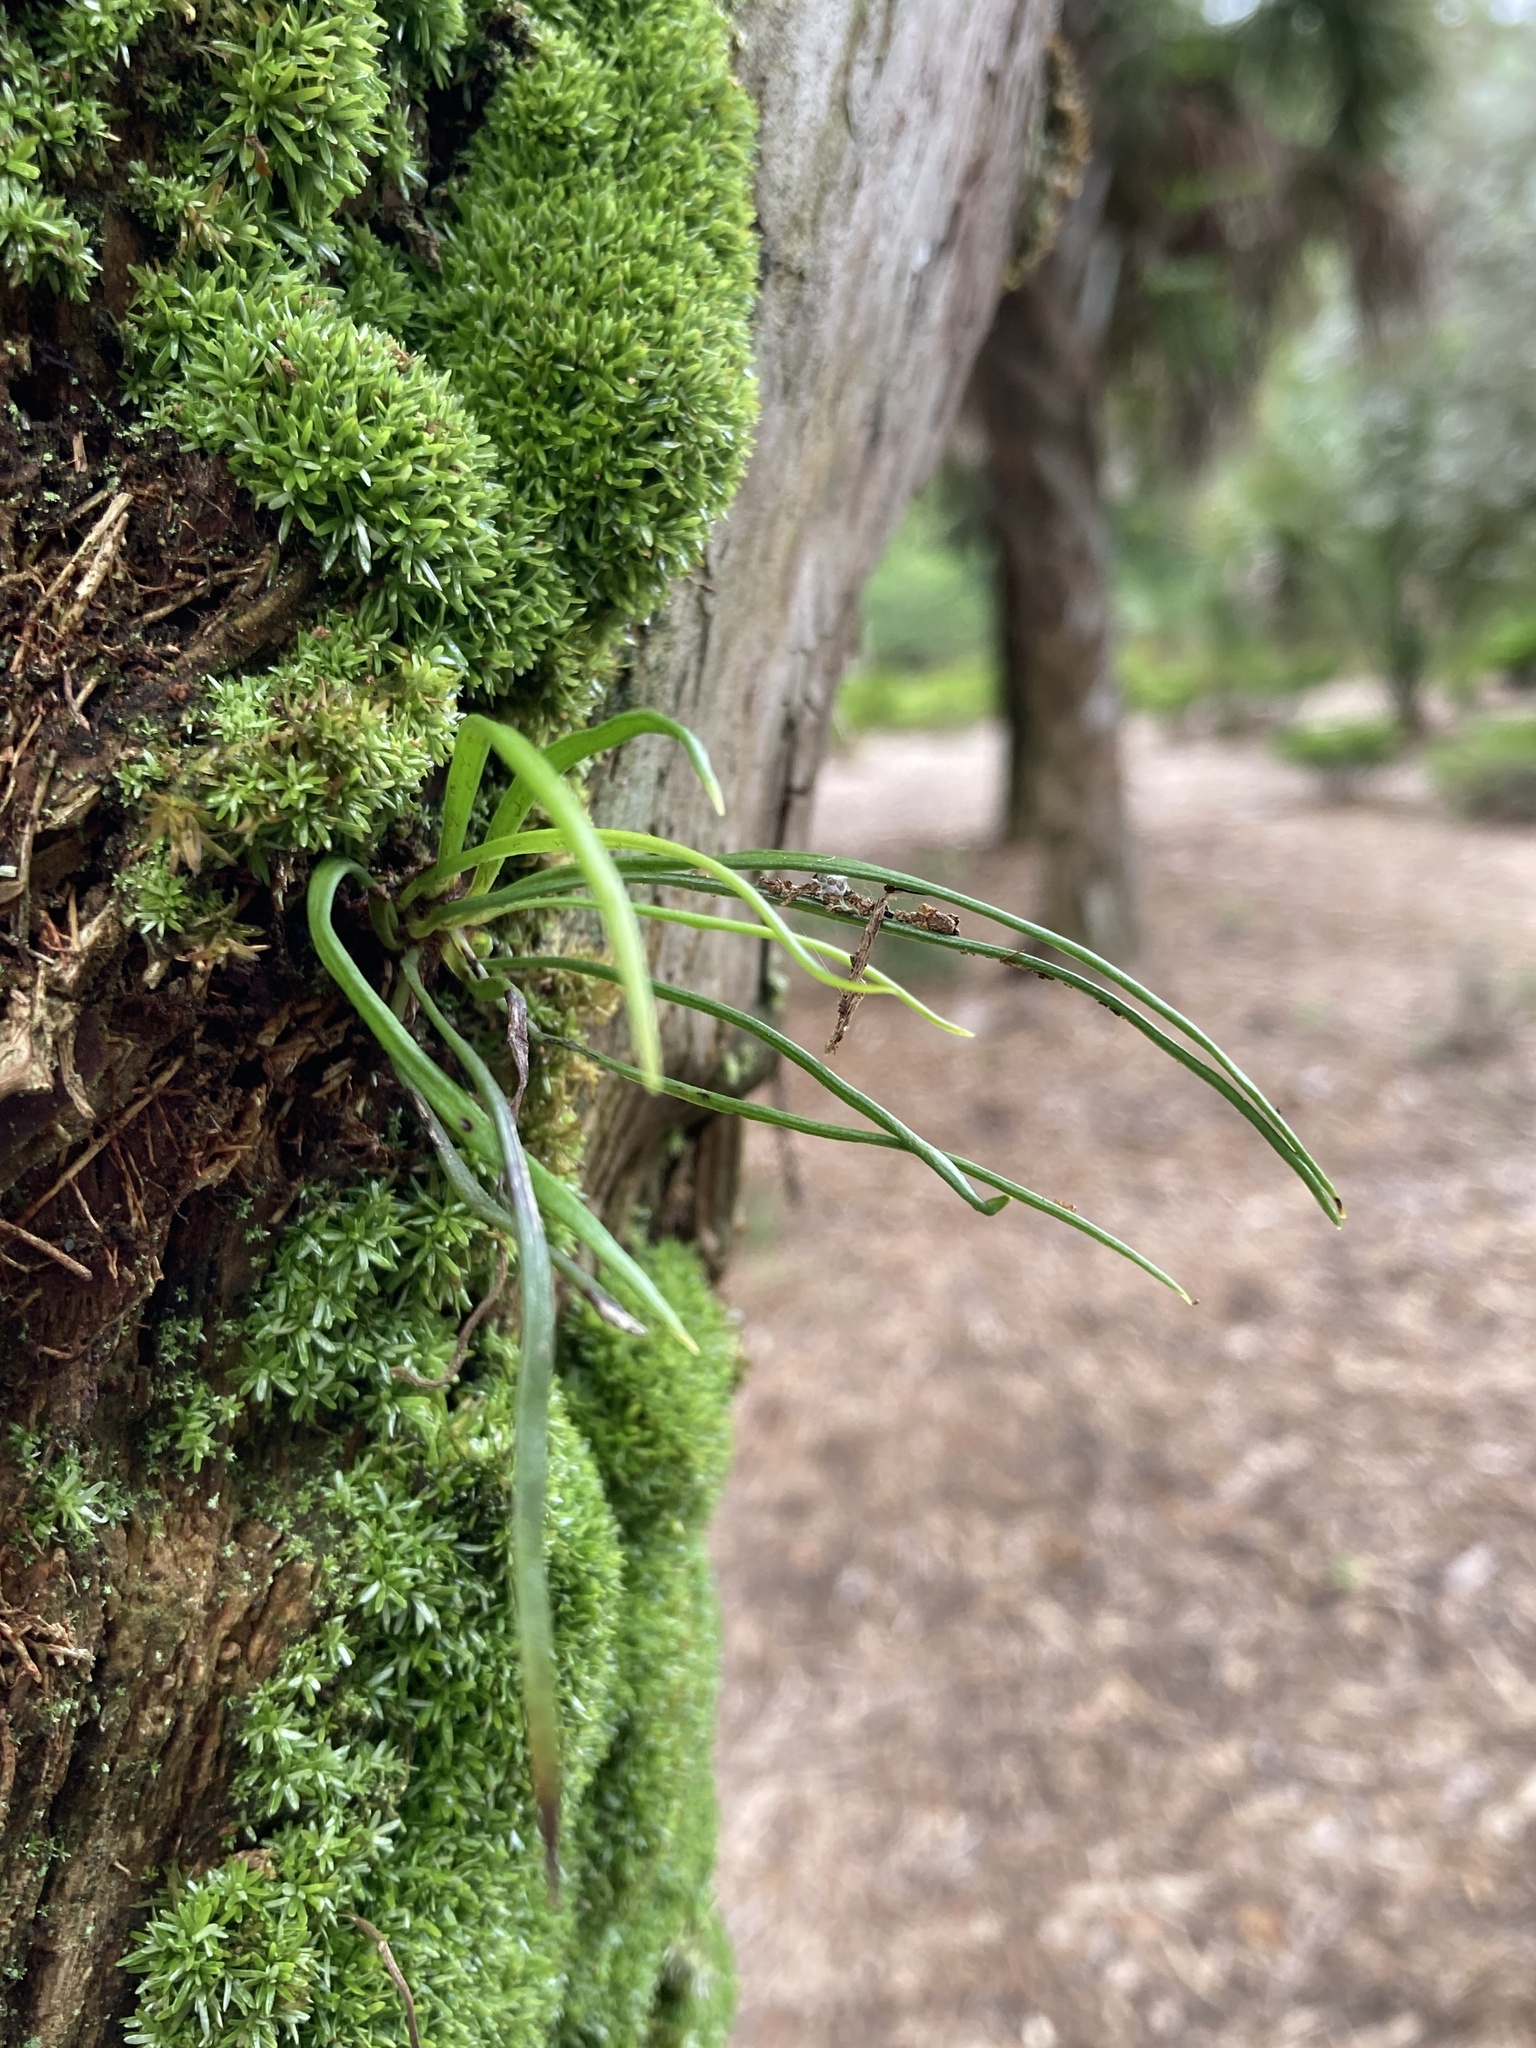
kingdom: Plantae
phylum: Tracheophyta
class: Polypodiopsida
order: Polypodiales
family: Pteridaceae
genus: Vittaria
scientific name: Vittaria lineata
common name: Shoestring fern
